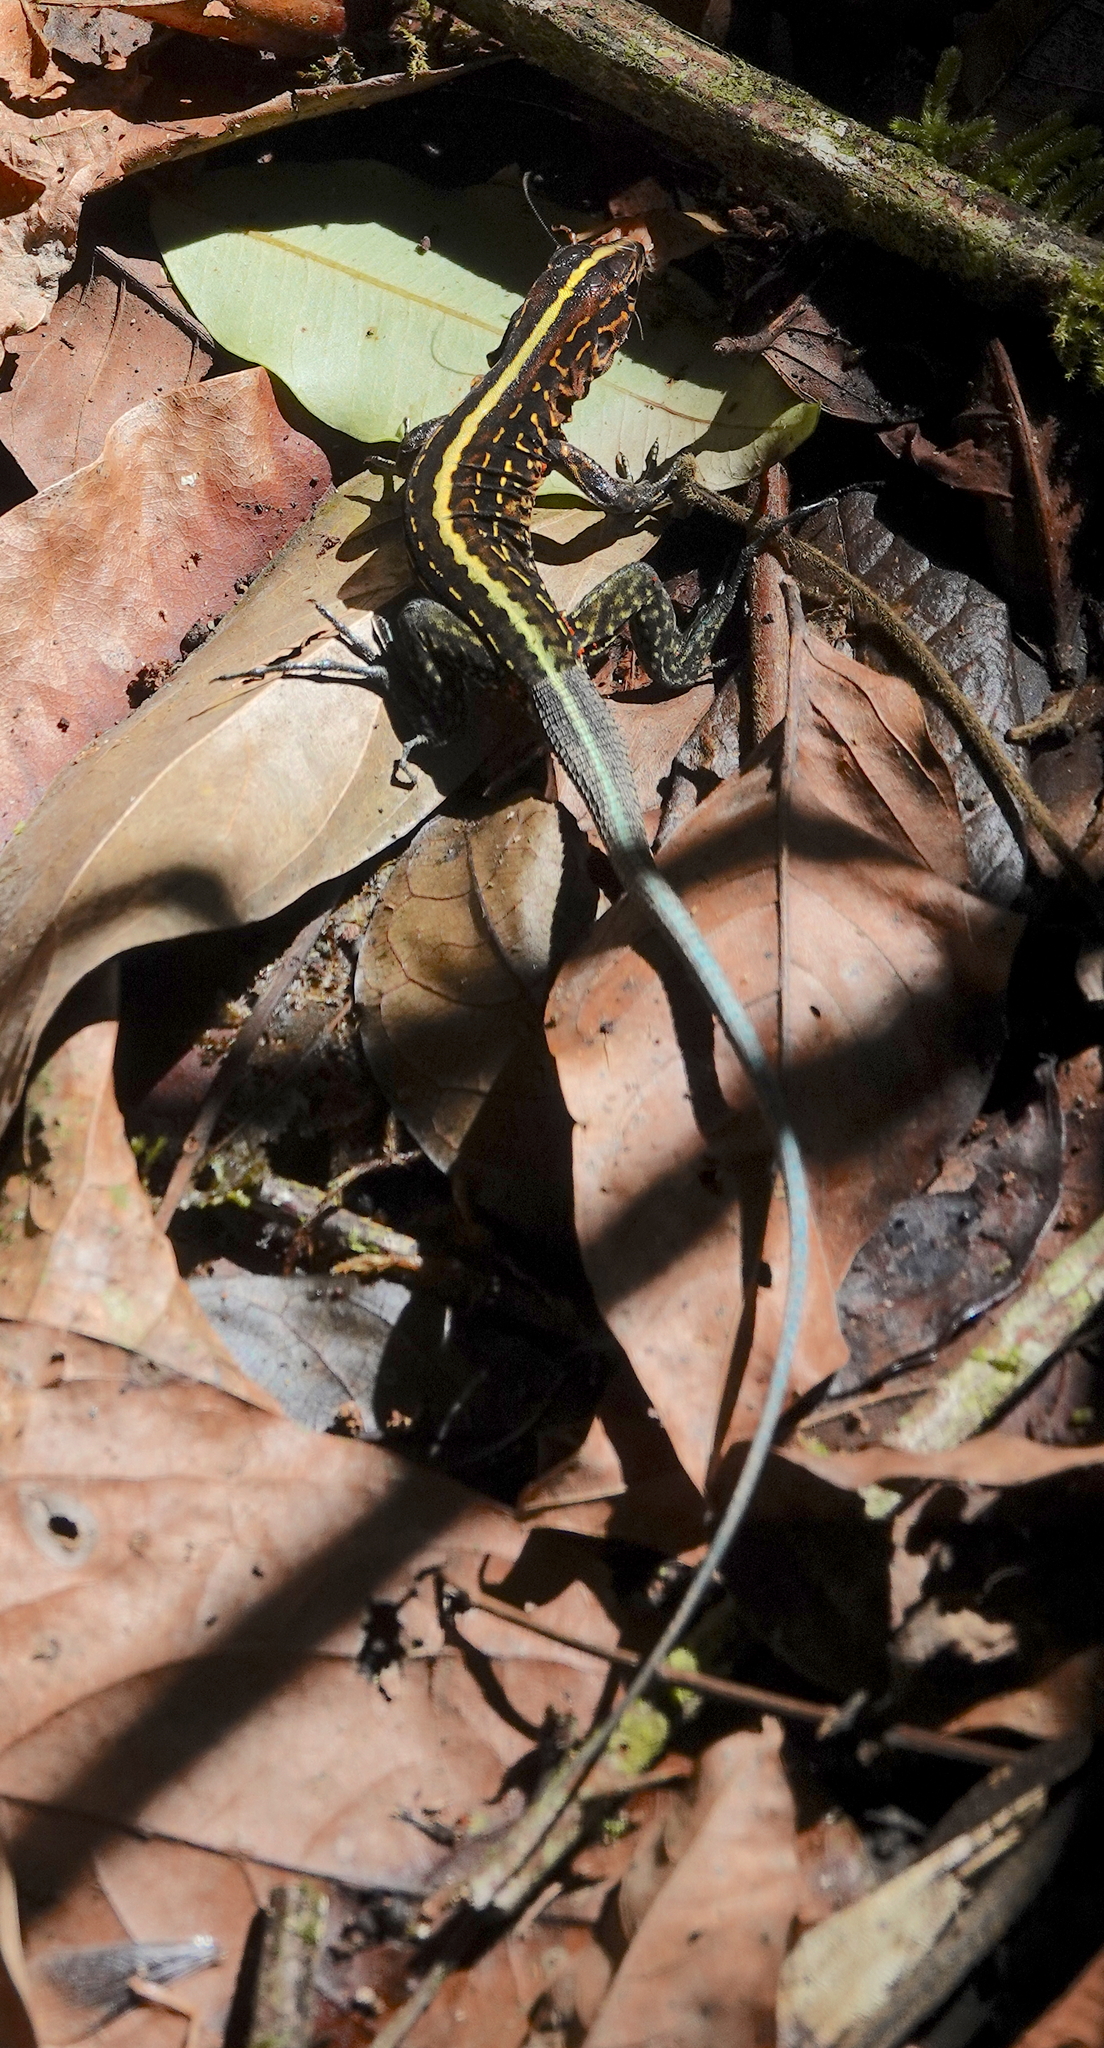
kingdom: Animalia
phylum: Chordata
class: Squamata
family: Teiidae
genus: Holcosus
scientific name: Holcosus festivus
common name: Middle american ameiva
